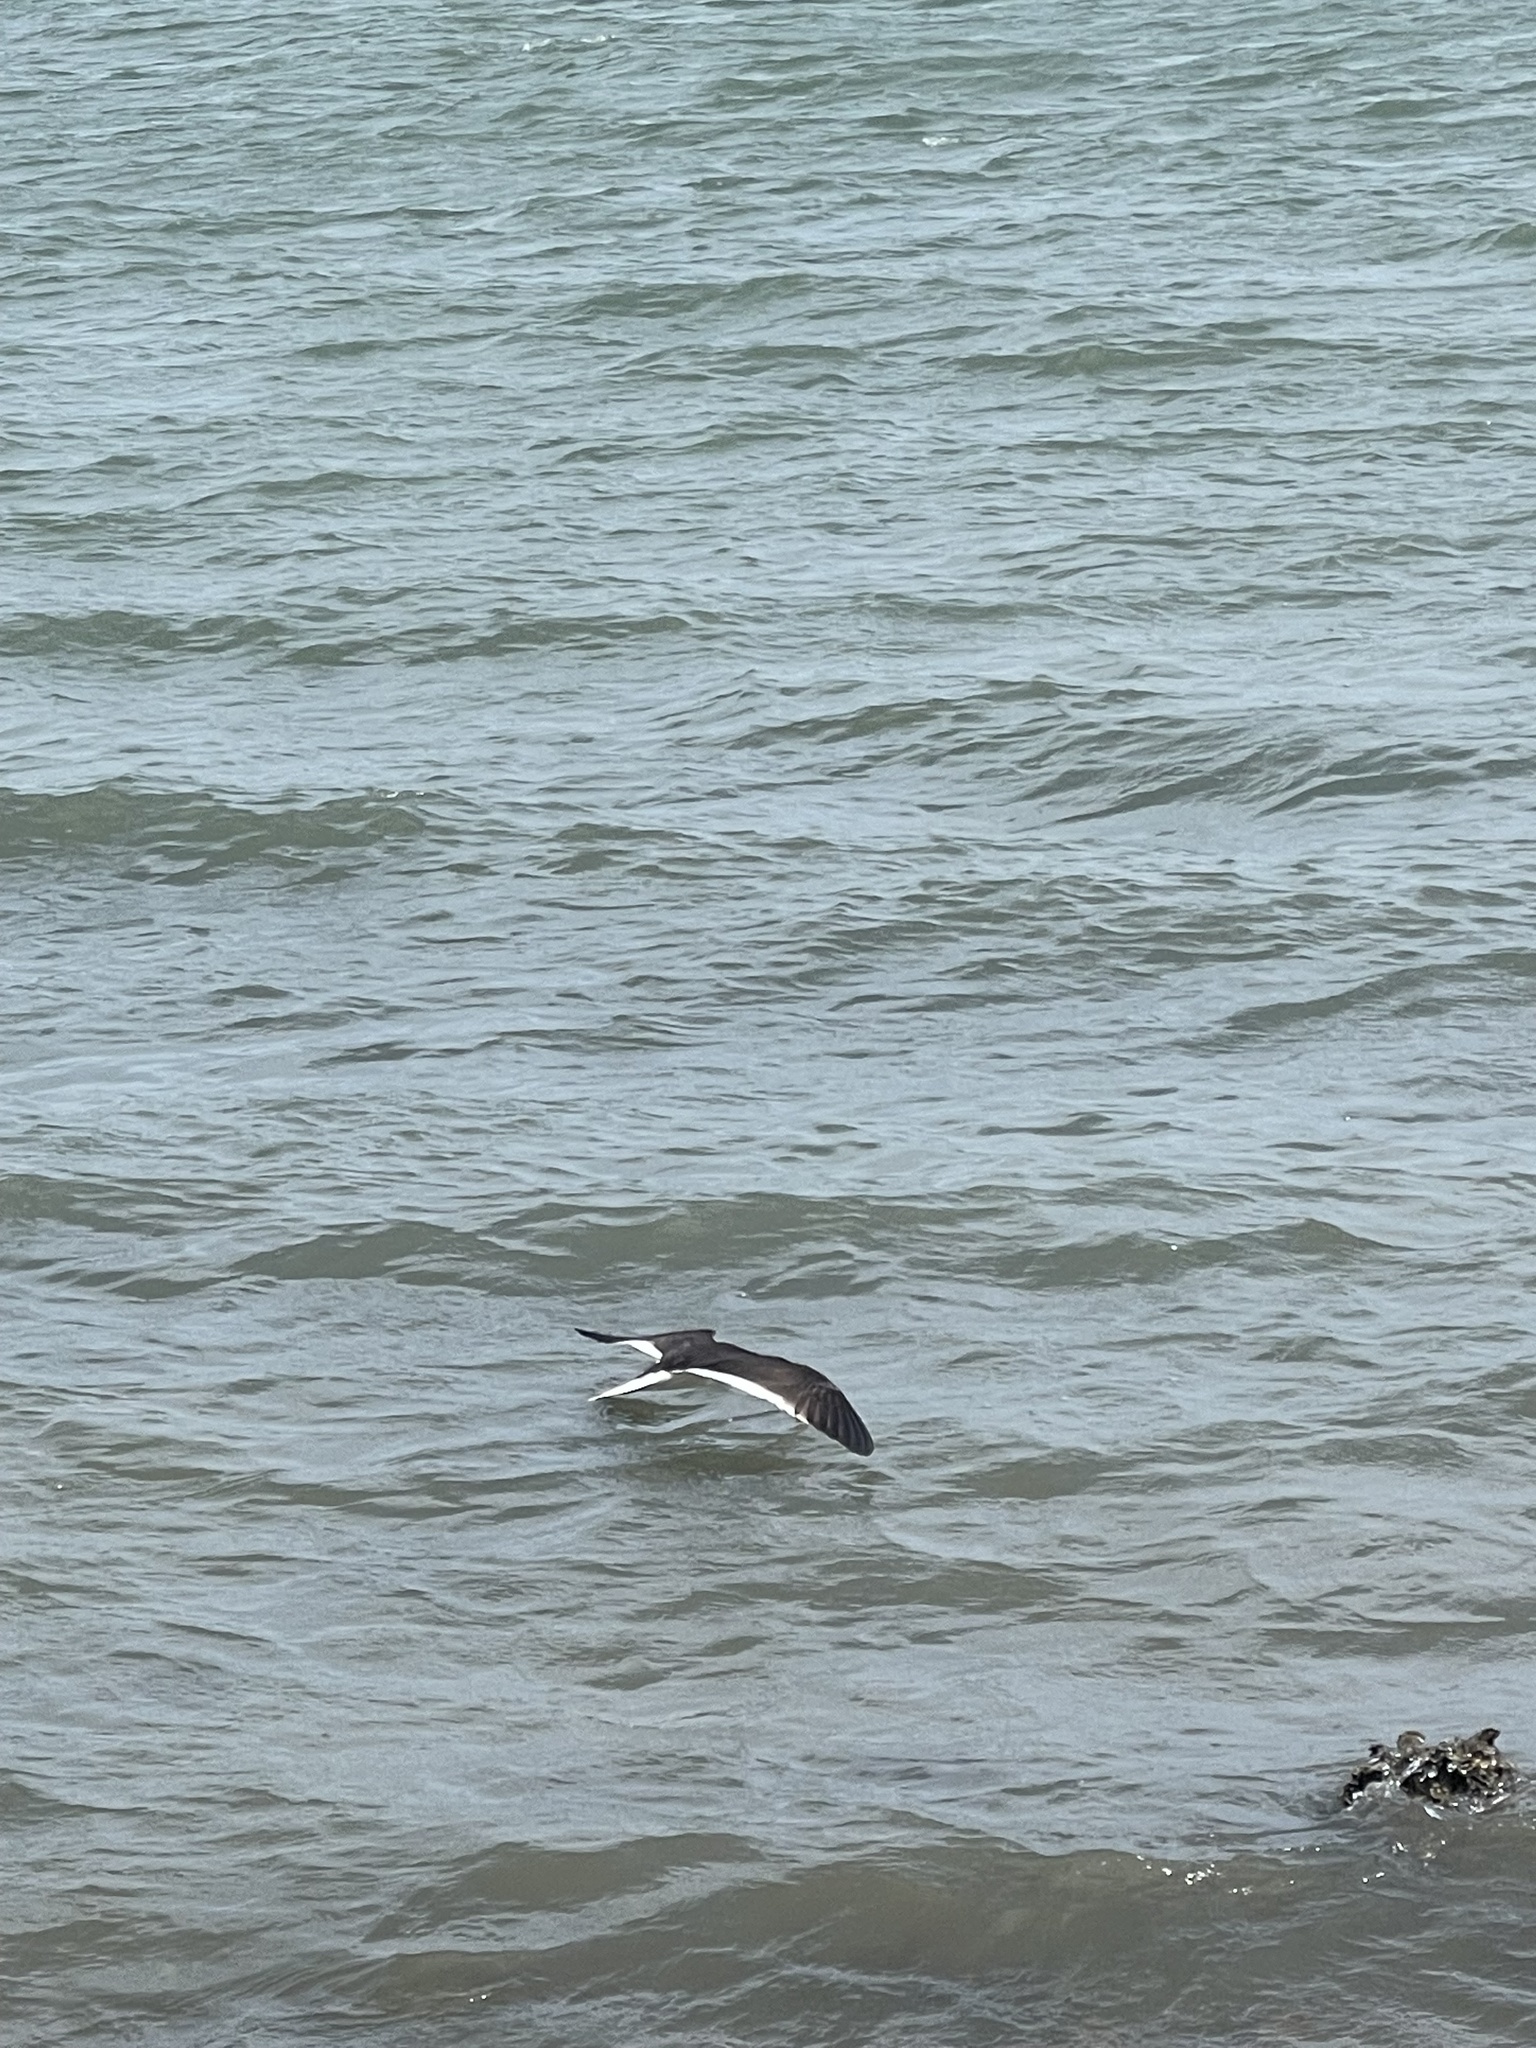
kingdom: Animalia
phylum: Chordata
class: Aves
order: Charadriiformes
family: Laridae
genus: Rynchops
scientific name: Rynchops niger
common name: Black skimmer
